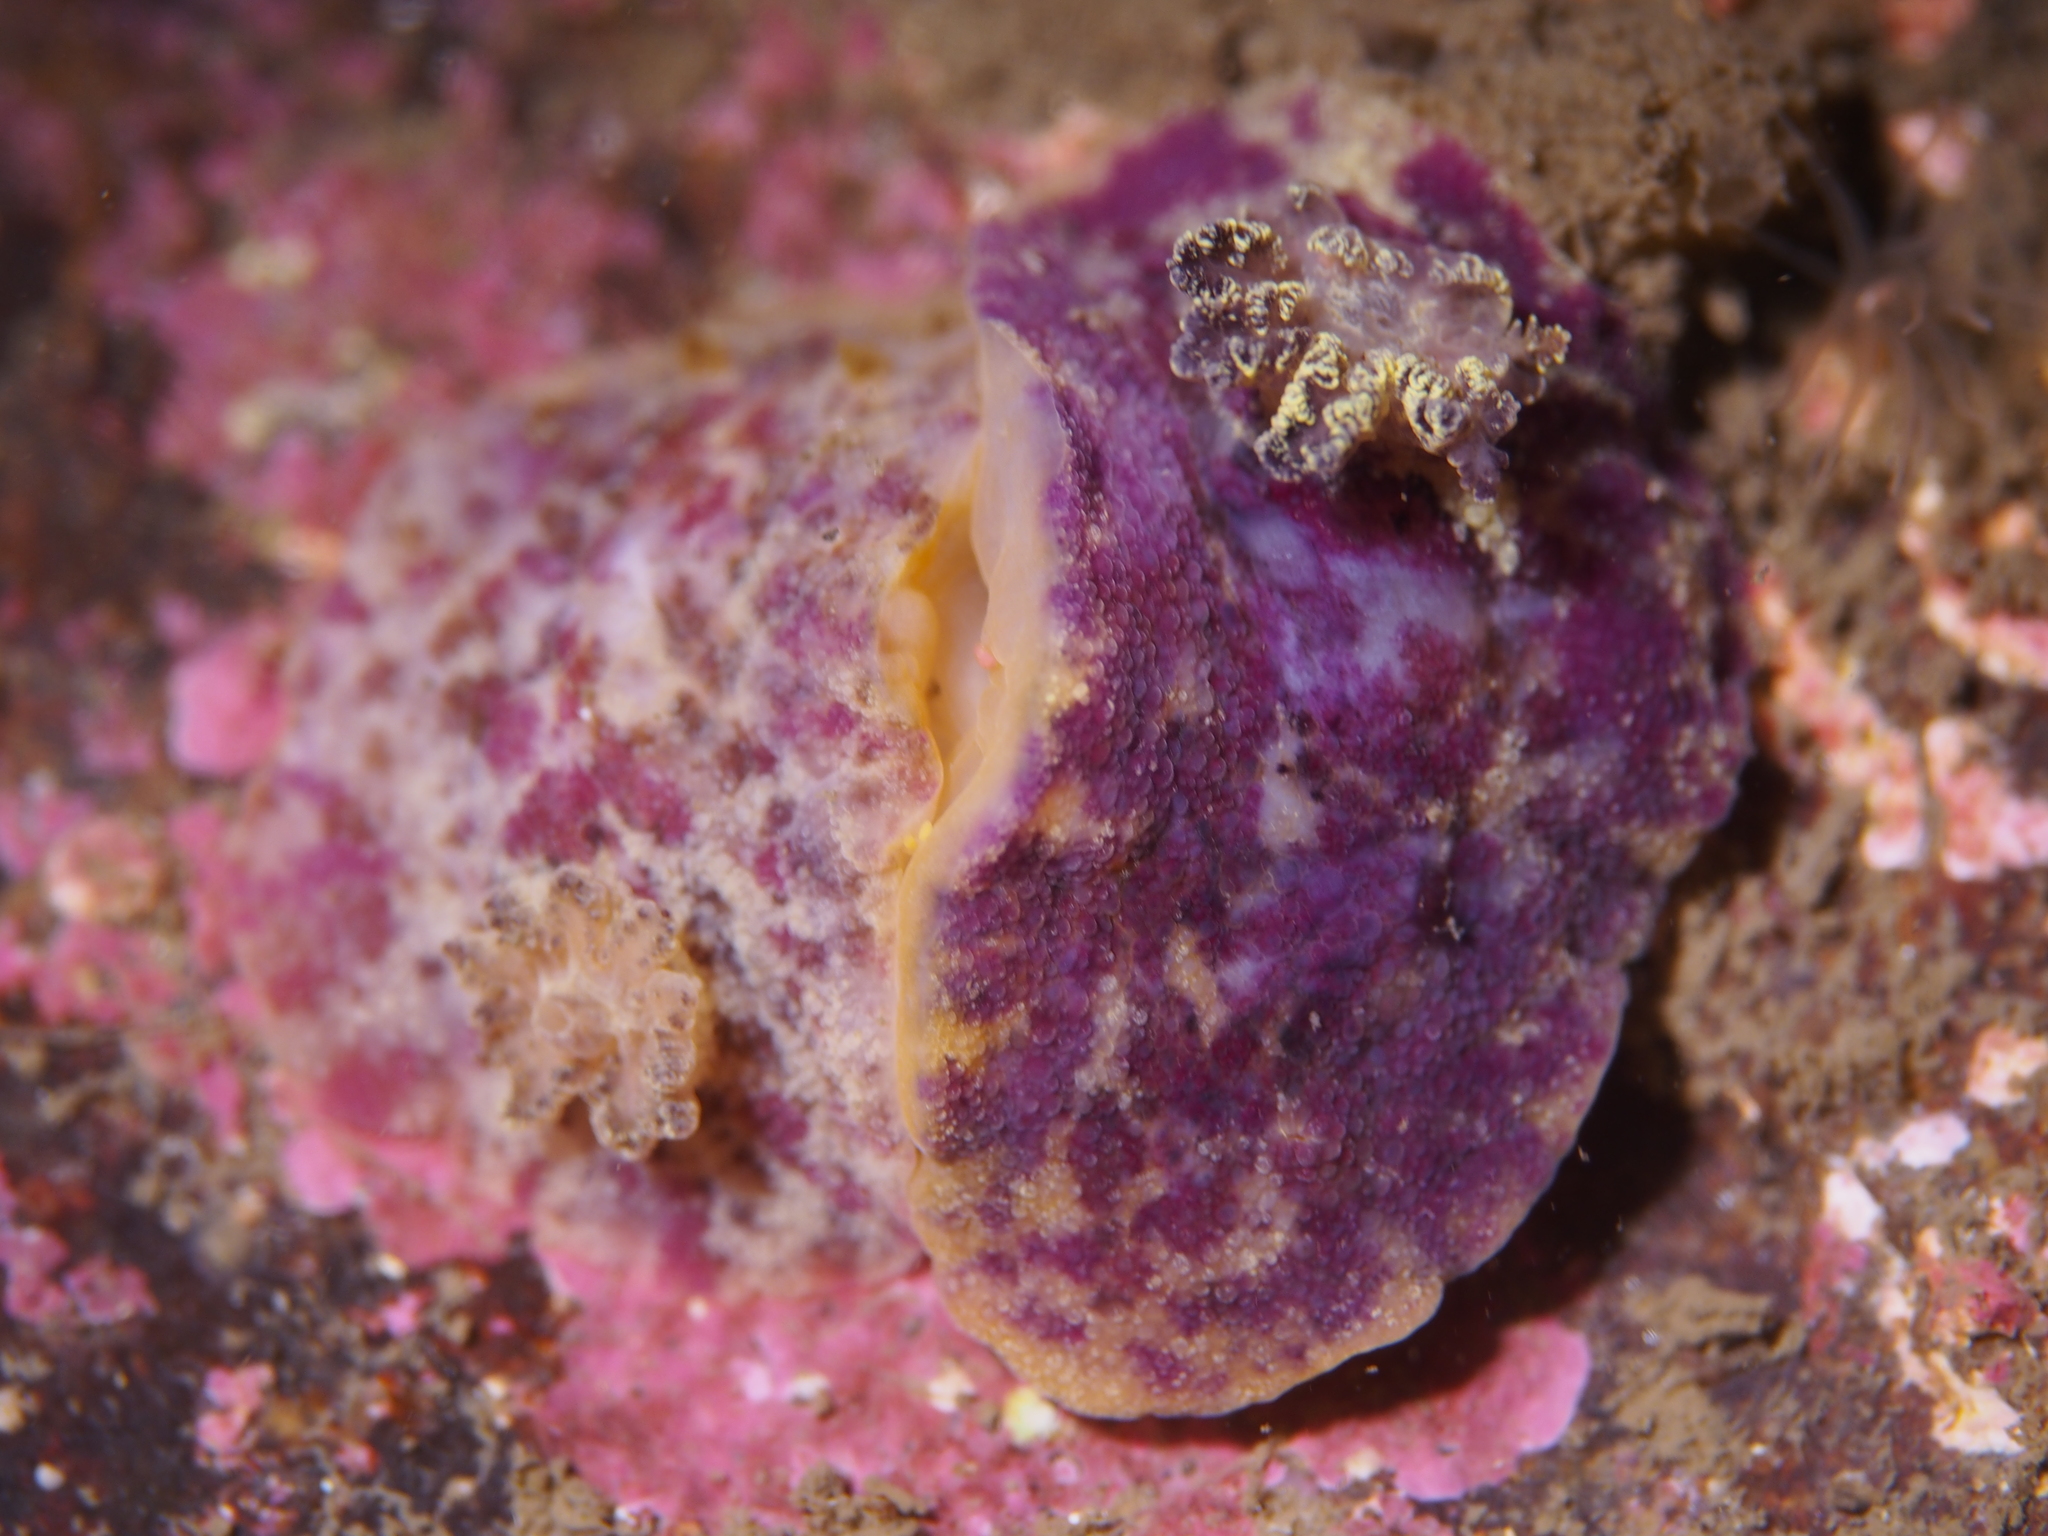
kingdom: Animalia
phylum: Mollusca
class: Gastropoda
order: Nudibranchia
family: Dorididae
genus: Doris
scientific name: Doris pseudoargus
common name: Sea lemon
